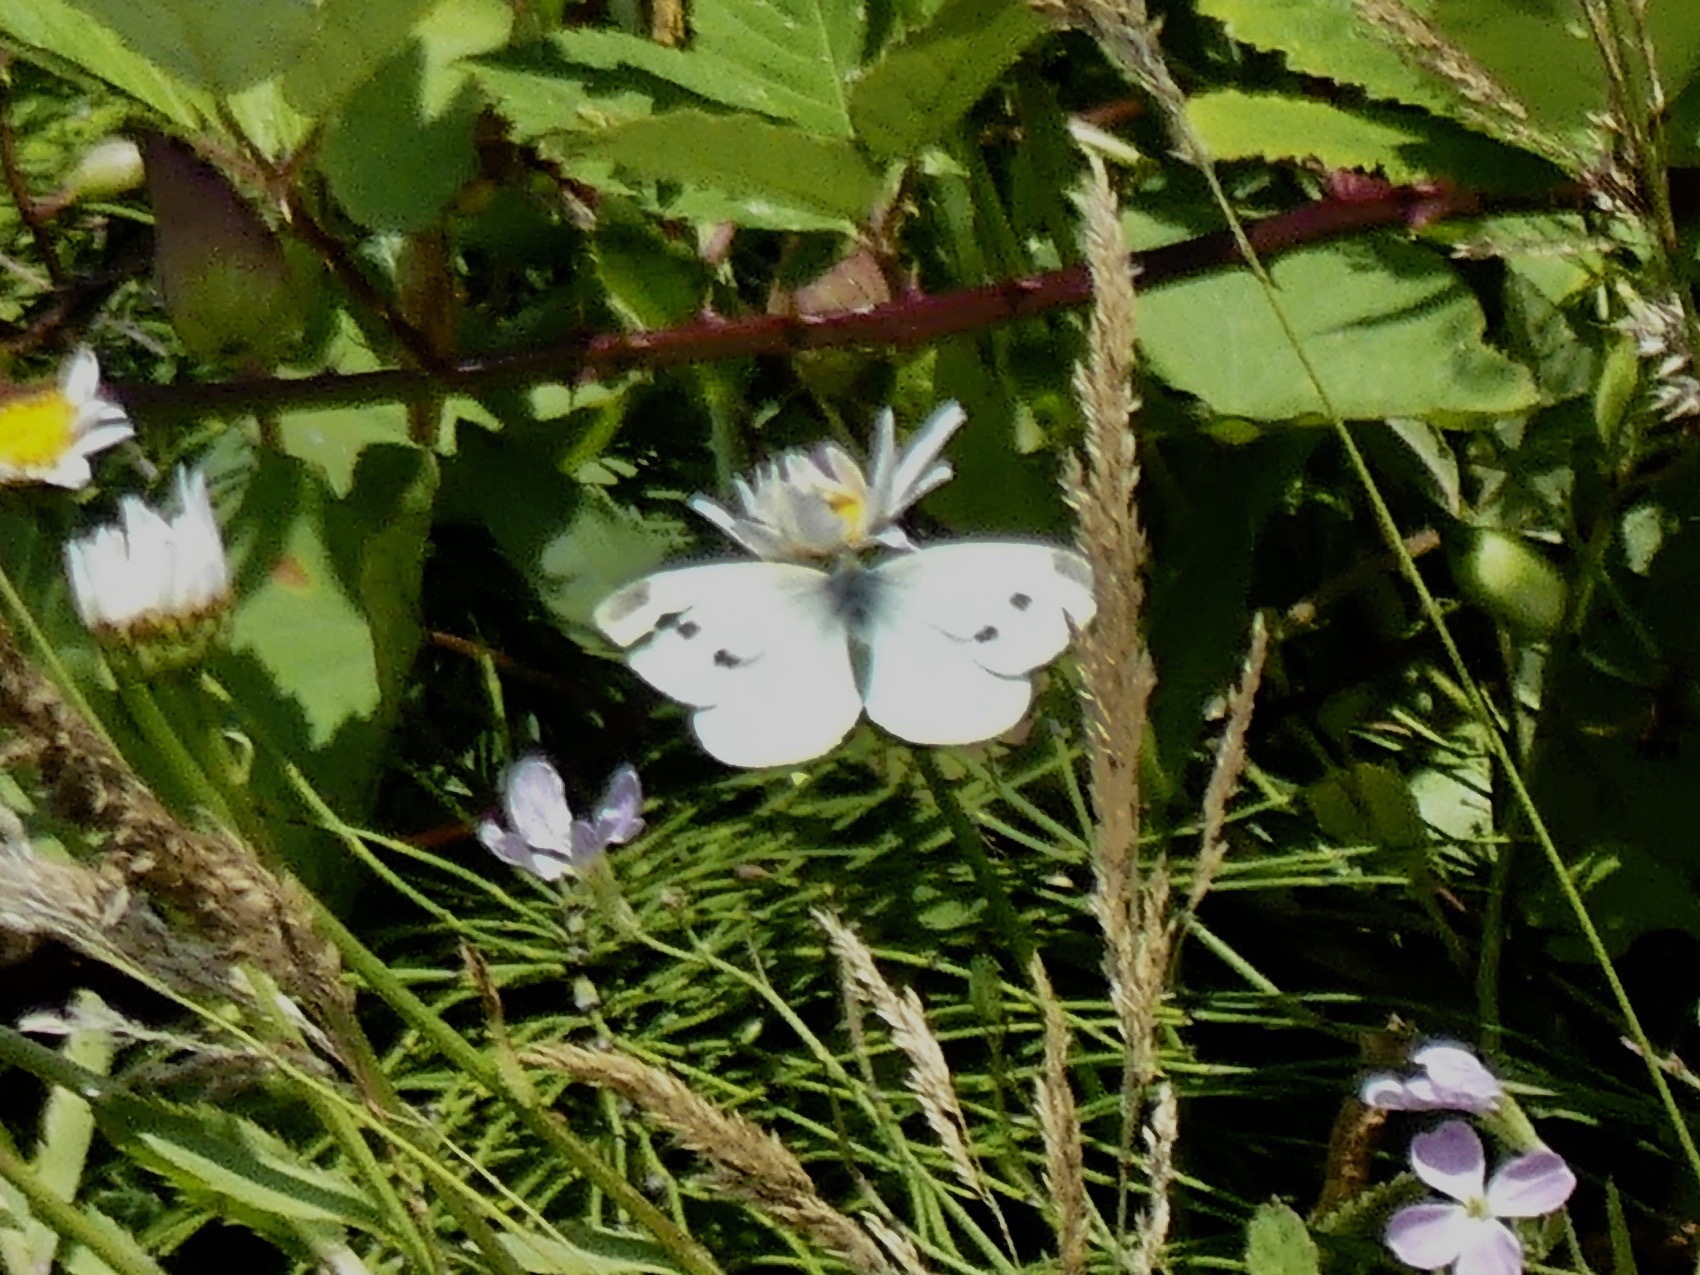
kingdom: Animalia
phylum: Arthropoda
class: Insecta
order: Lepidoptera
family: Pieridae
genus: Pieris
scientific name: Pieris rapae
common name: Small white
